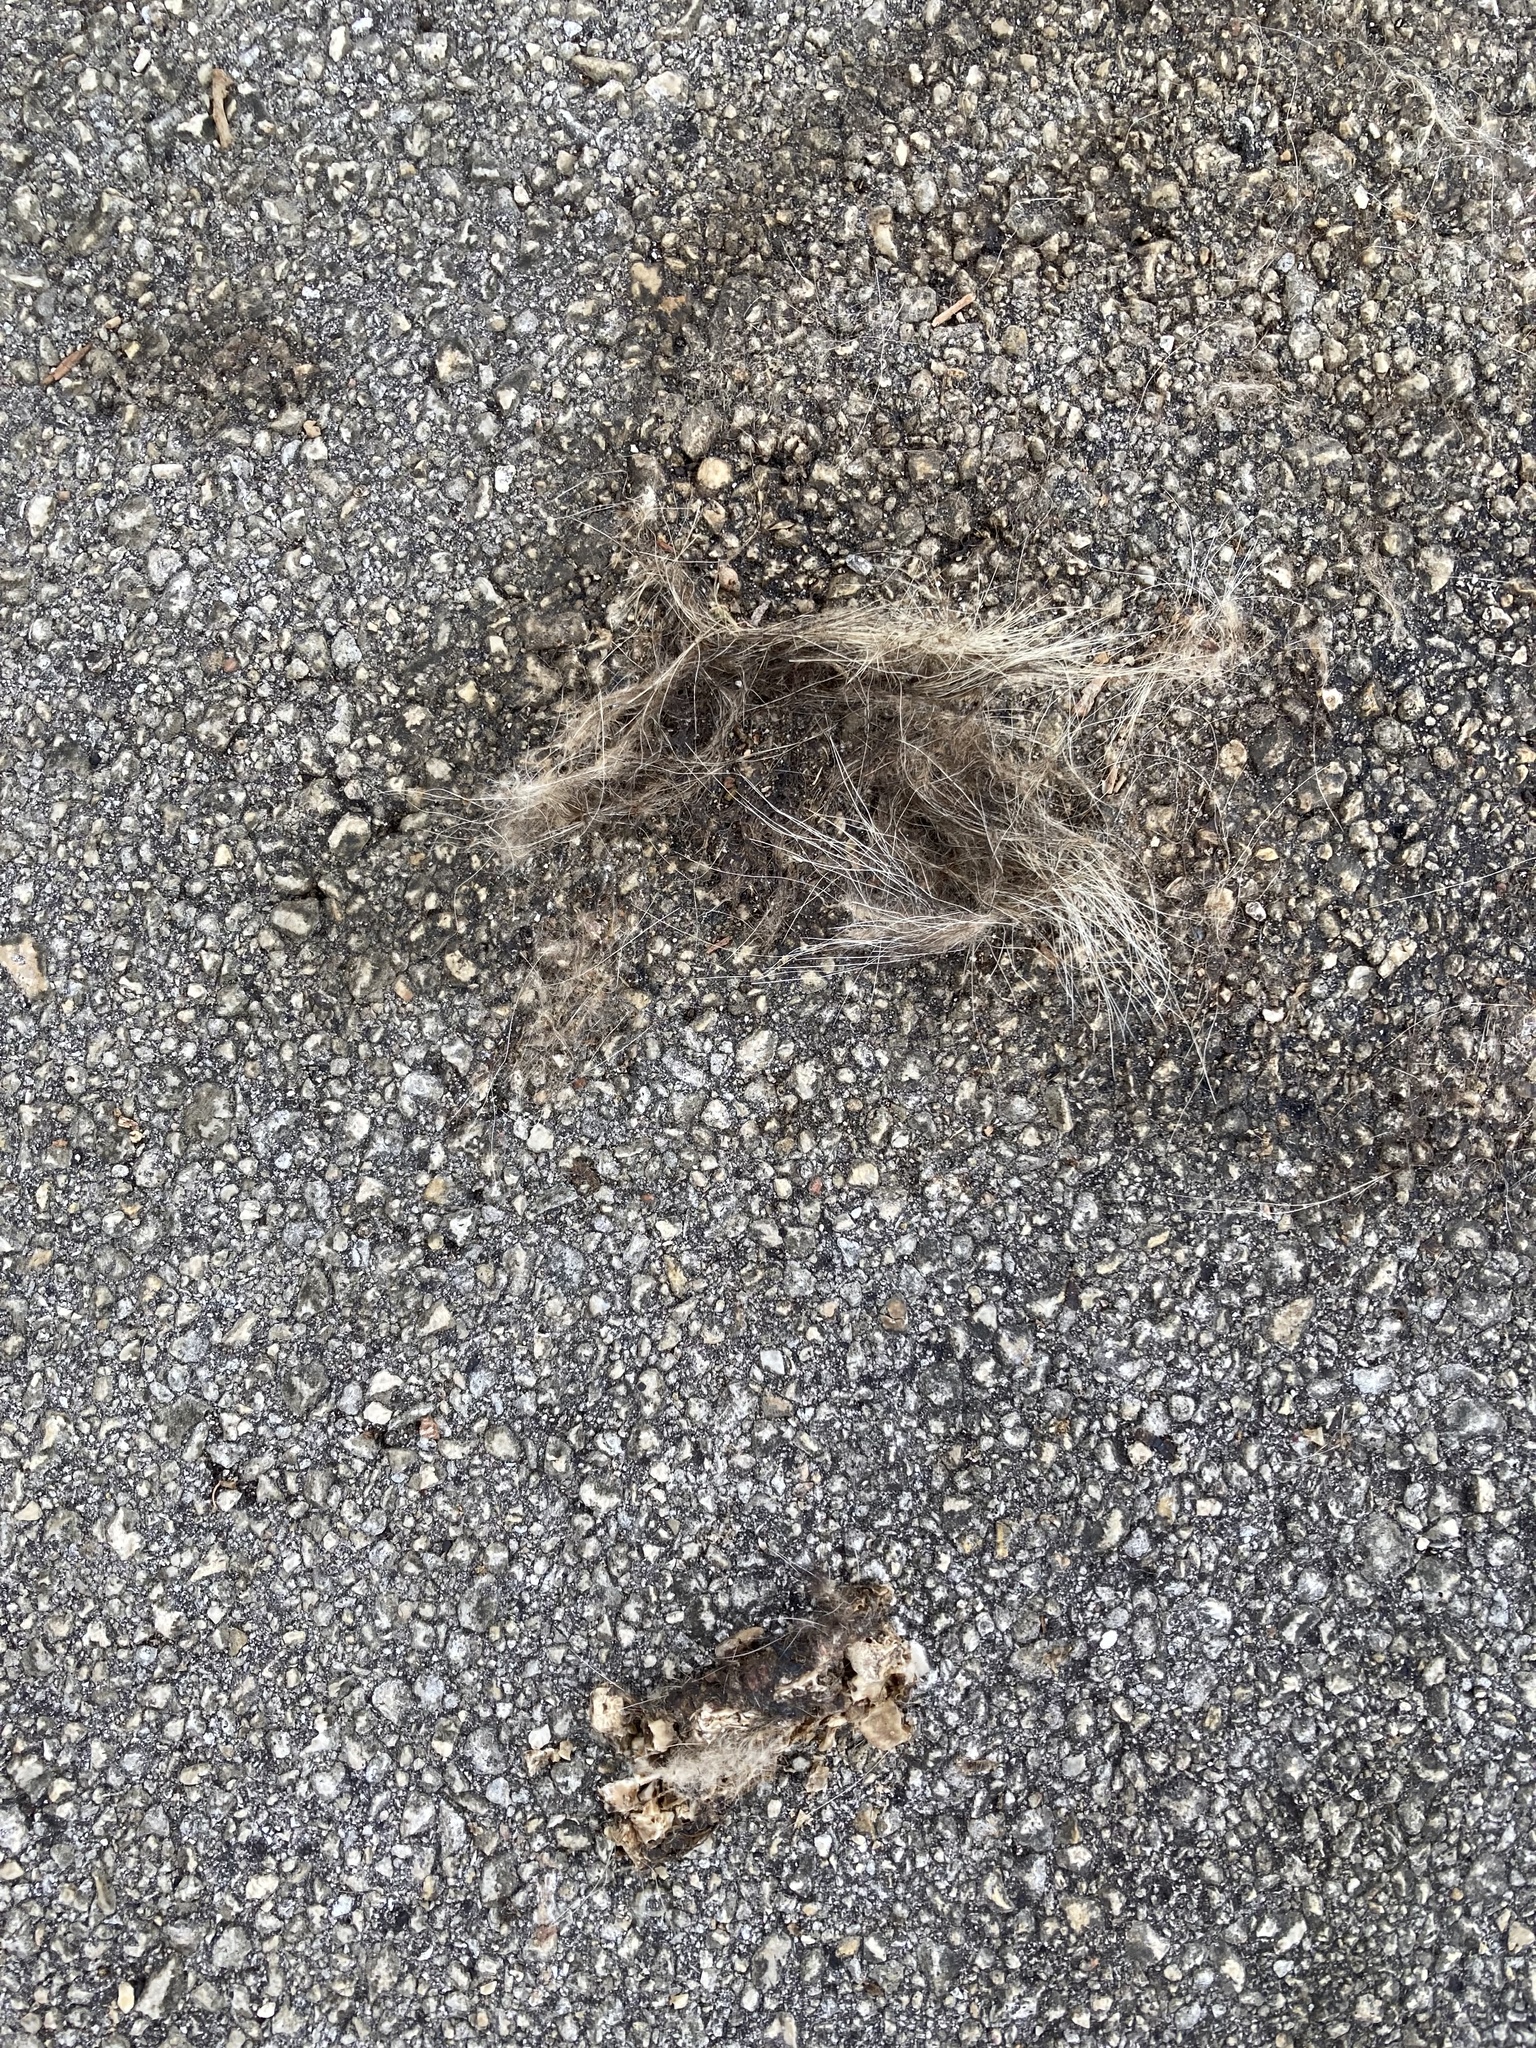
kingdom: Animalia
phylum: Chordata
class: Mammalia
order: Didelphimorphia
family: Didelphidae
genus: Didelphis
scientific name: Didelphis virginiana
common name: Virginia opossum
